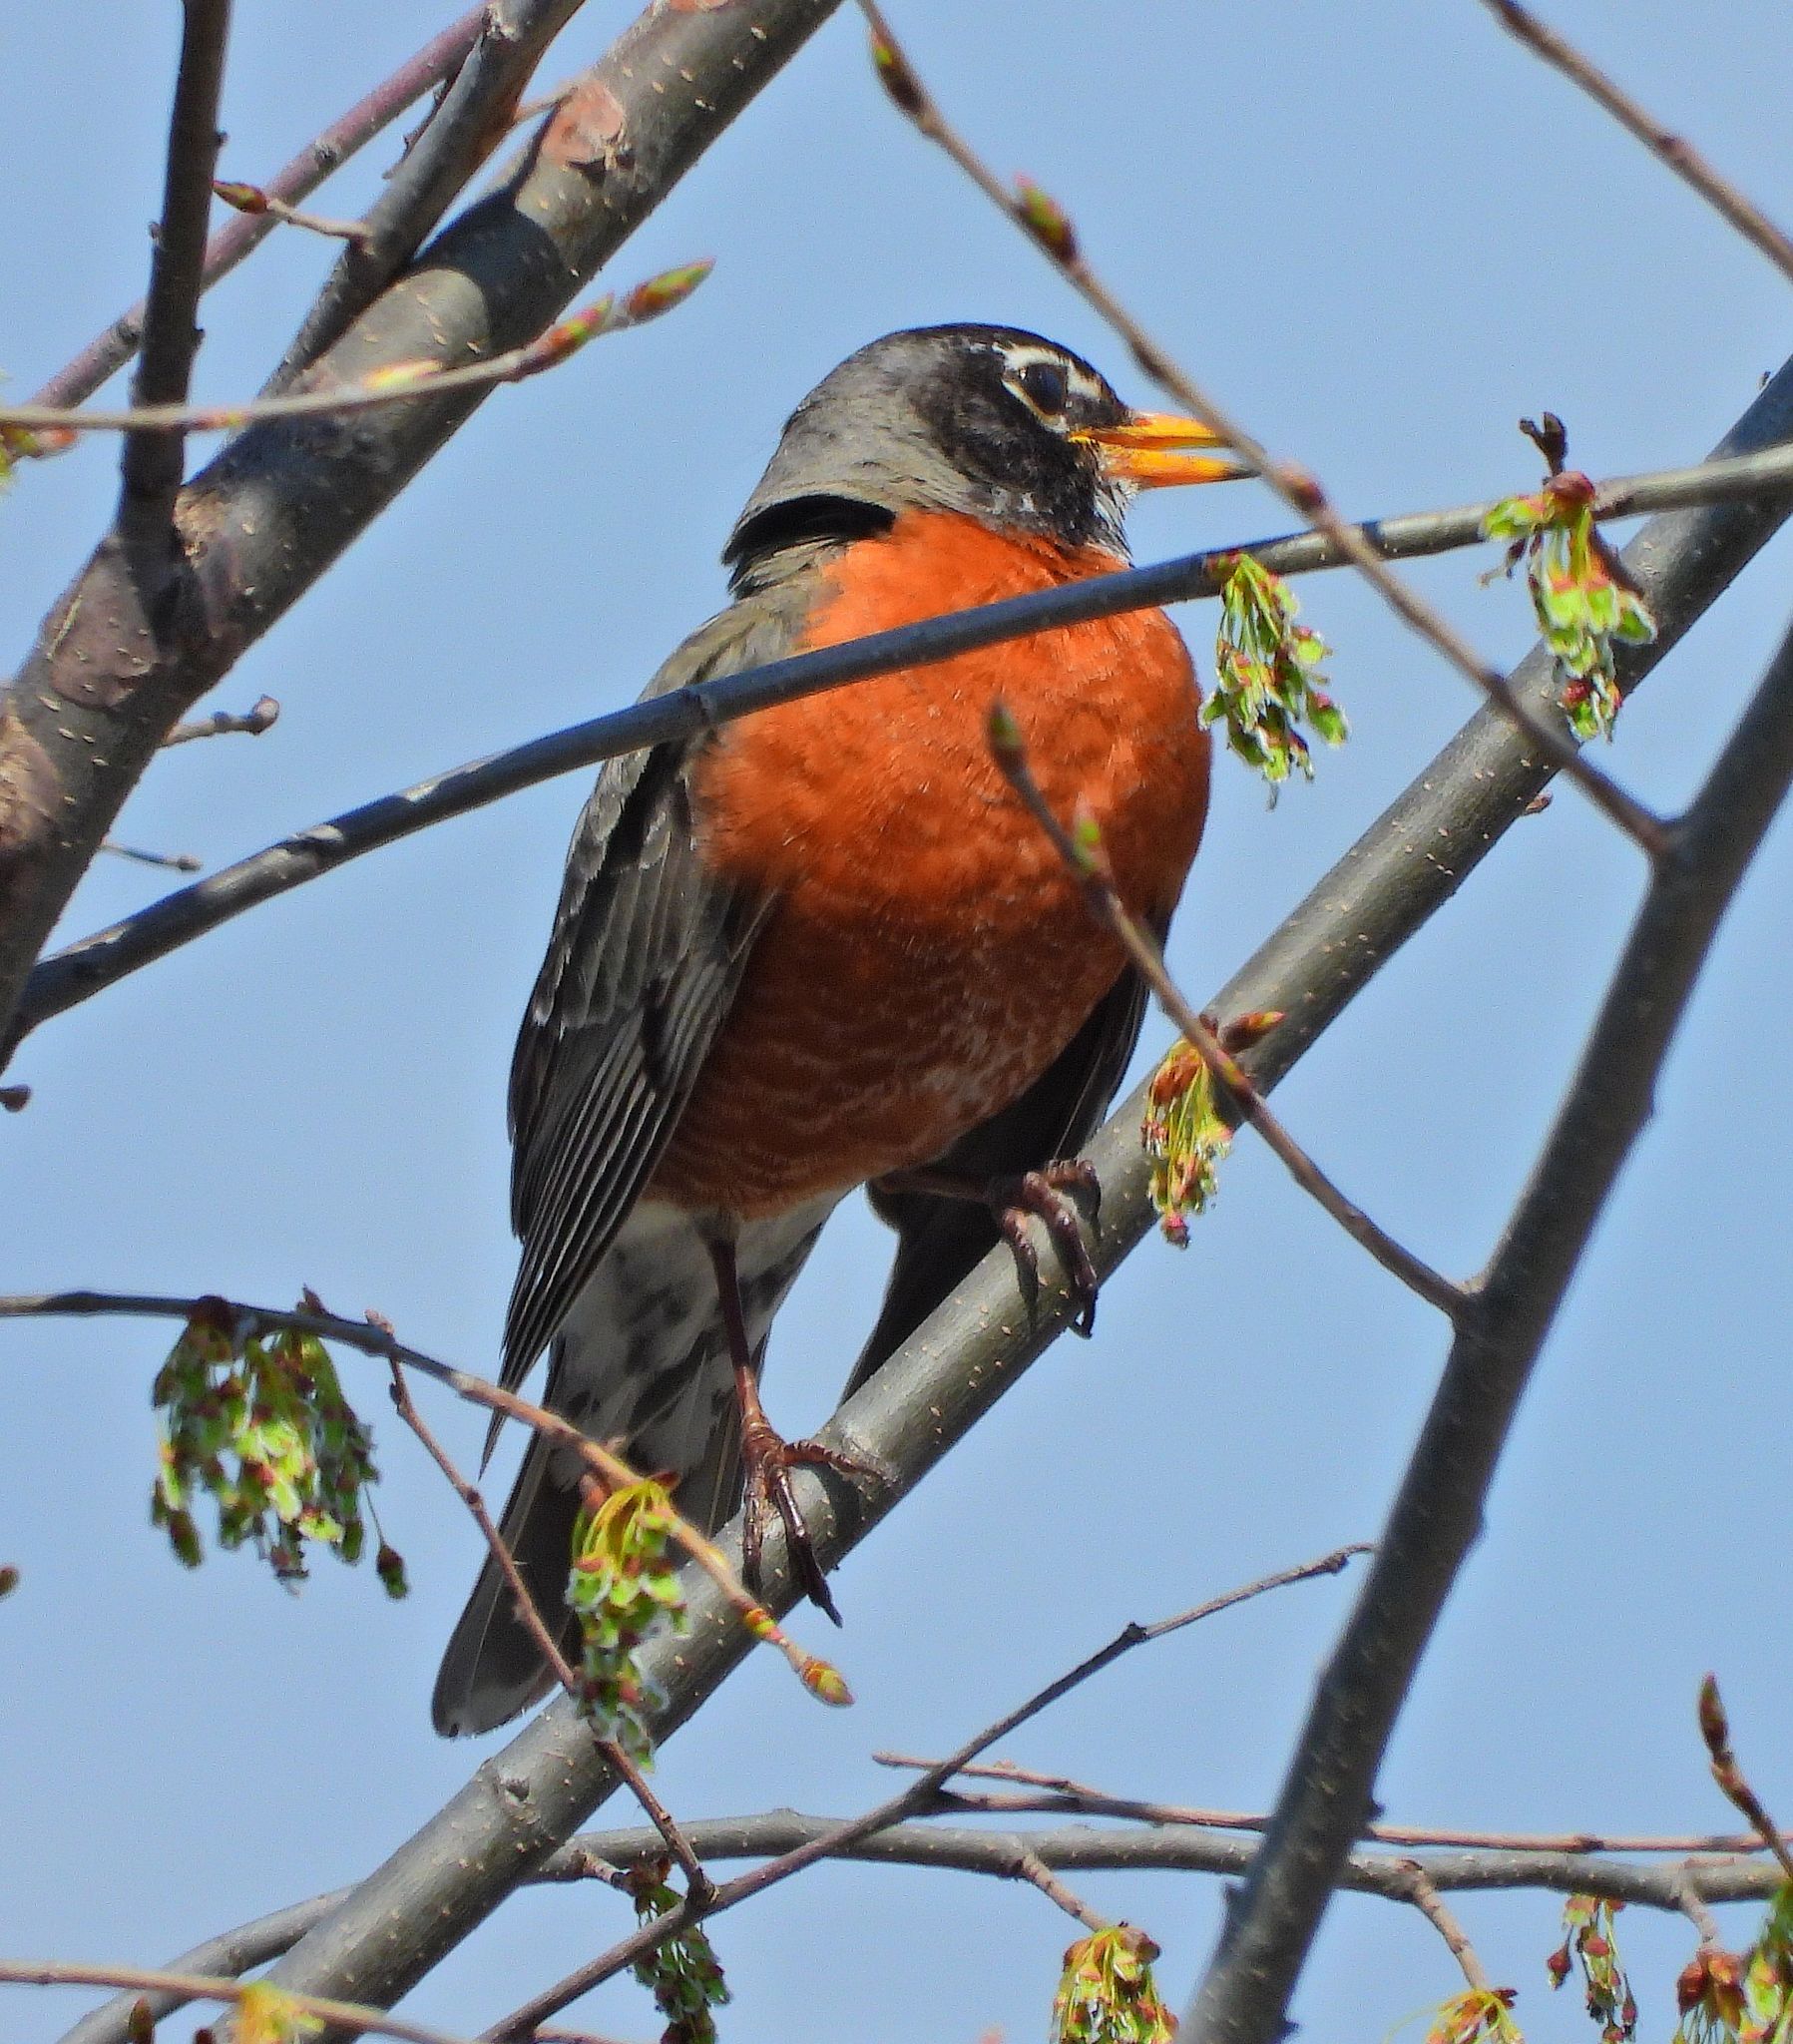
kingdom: Animalia
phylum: Chordata
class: Aves
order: Passeriformes
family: Turdidae
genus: Turdus
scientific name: Turdus migratorius
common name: American robin
